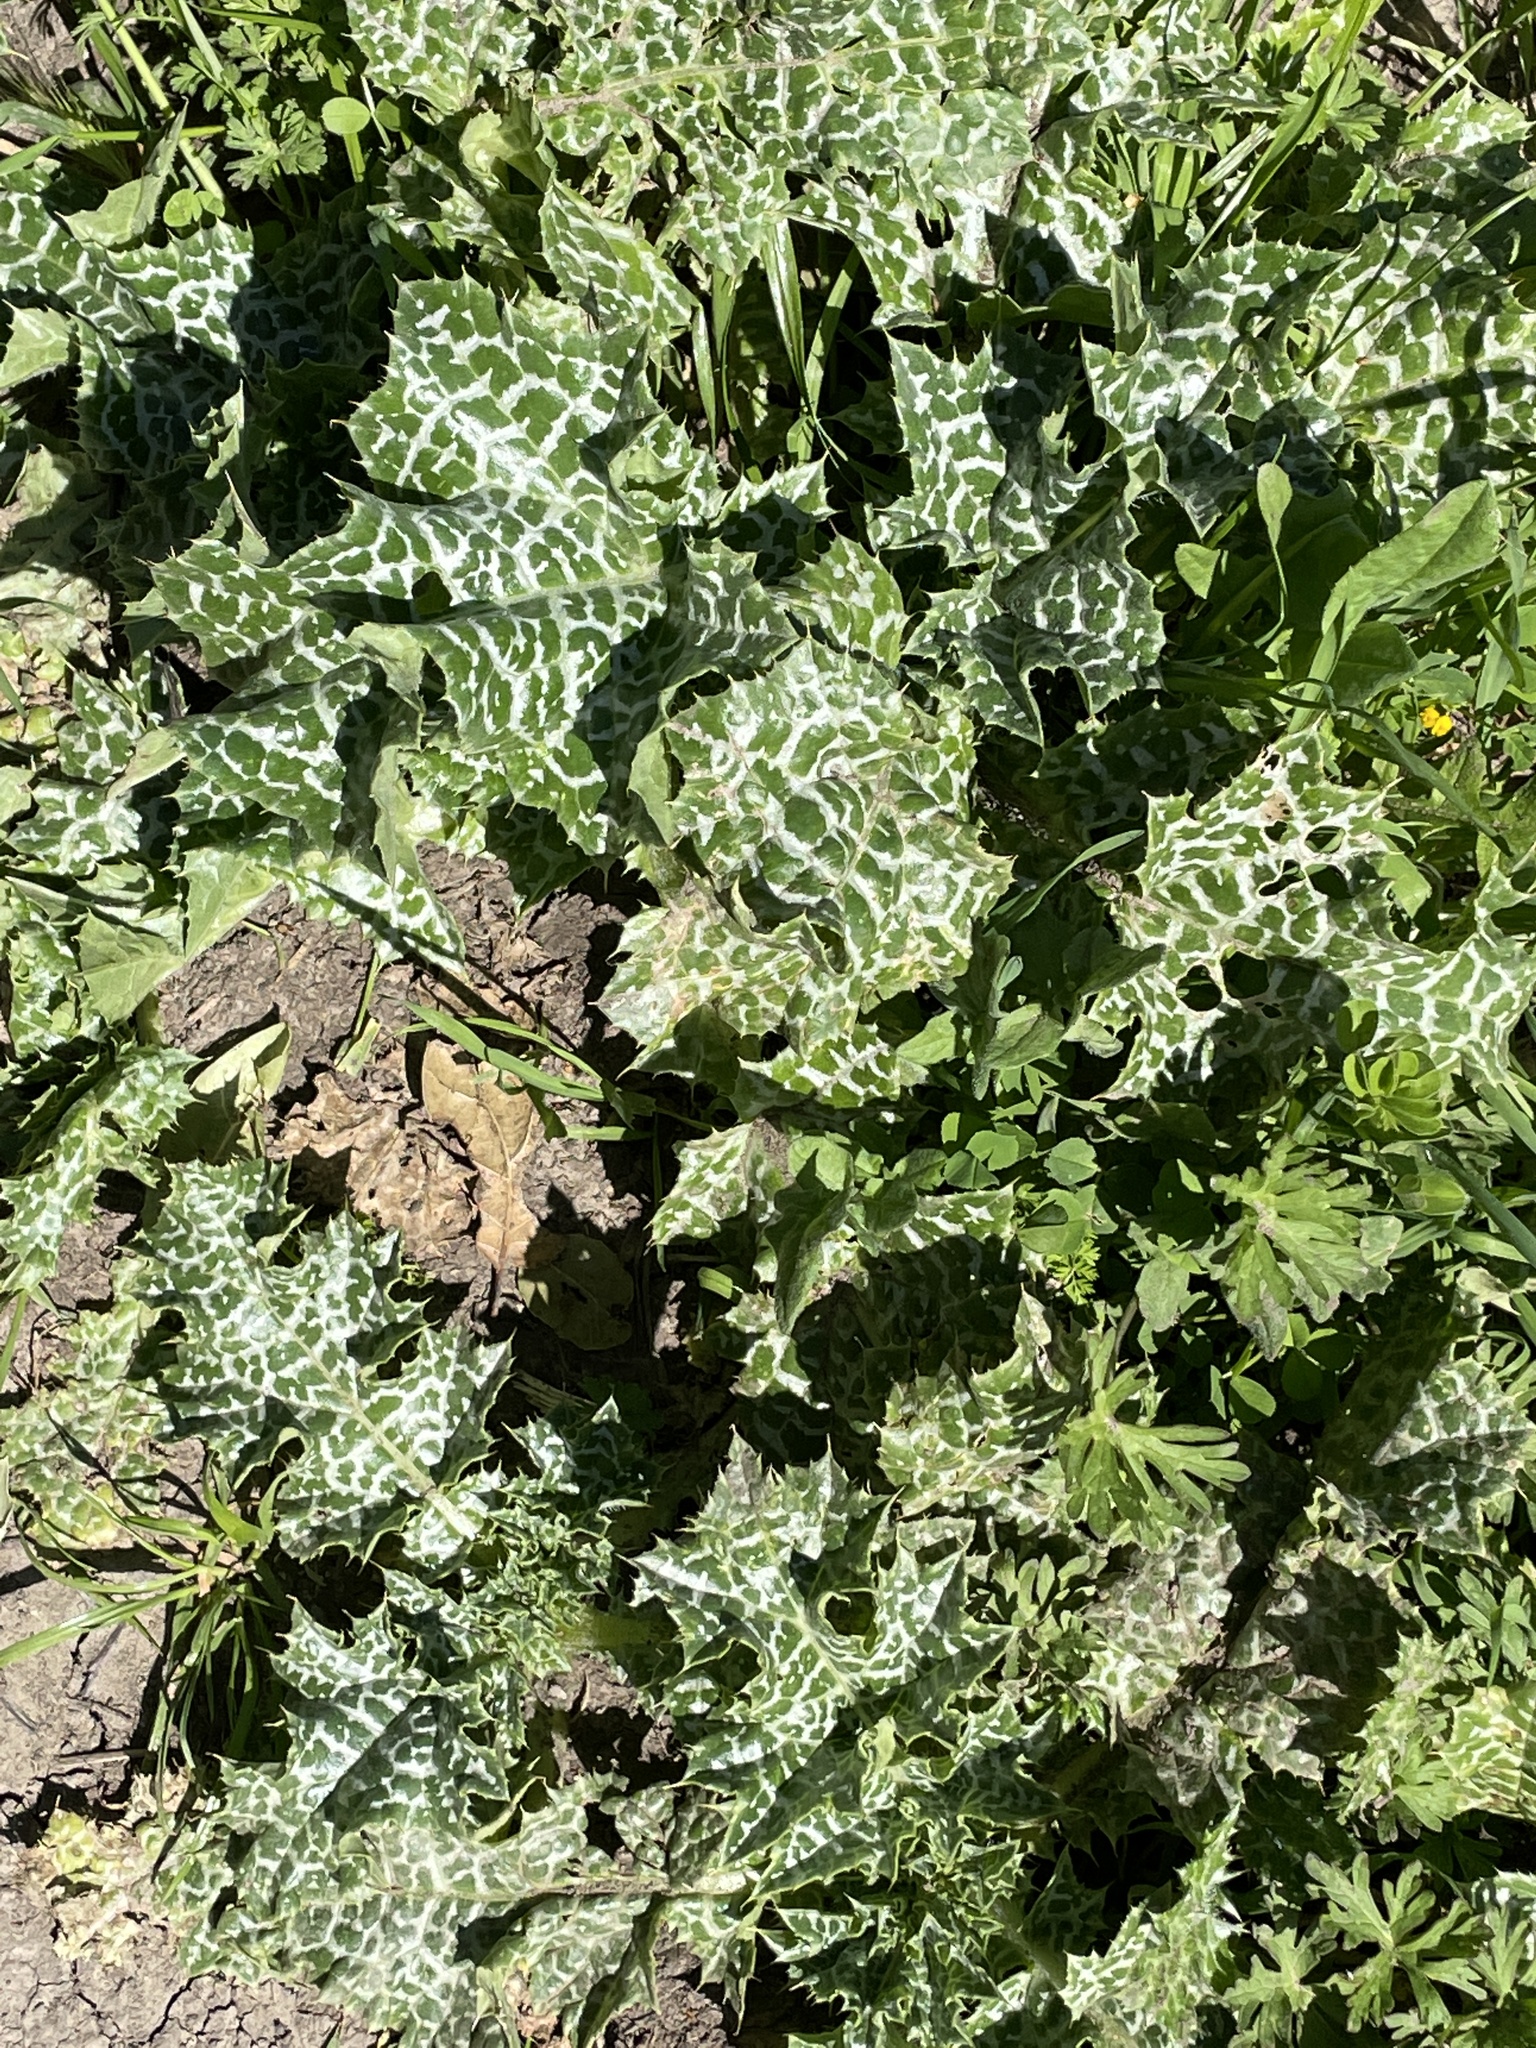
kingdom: Plantae
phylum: Tracheophyta
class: Magnoliopsida
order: Asterales
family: Asteraceae
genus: Silybum
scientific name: Silybum marianum
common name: Milk thistle
